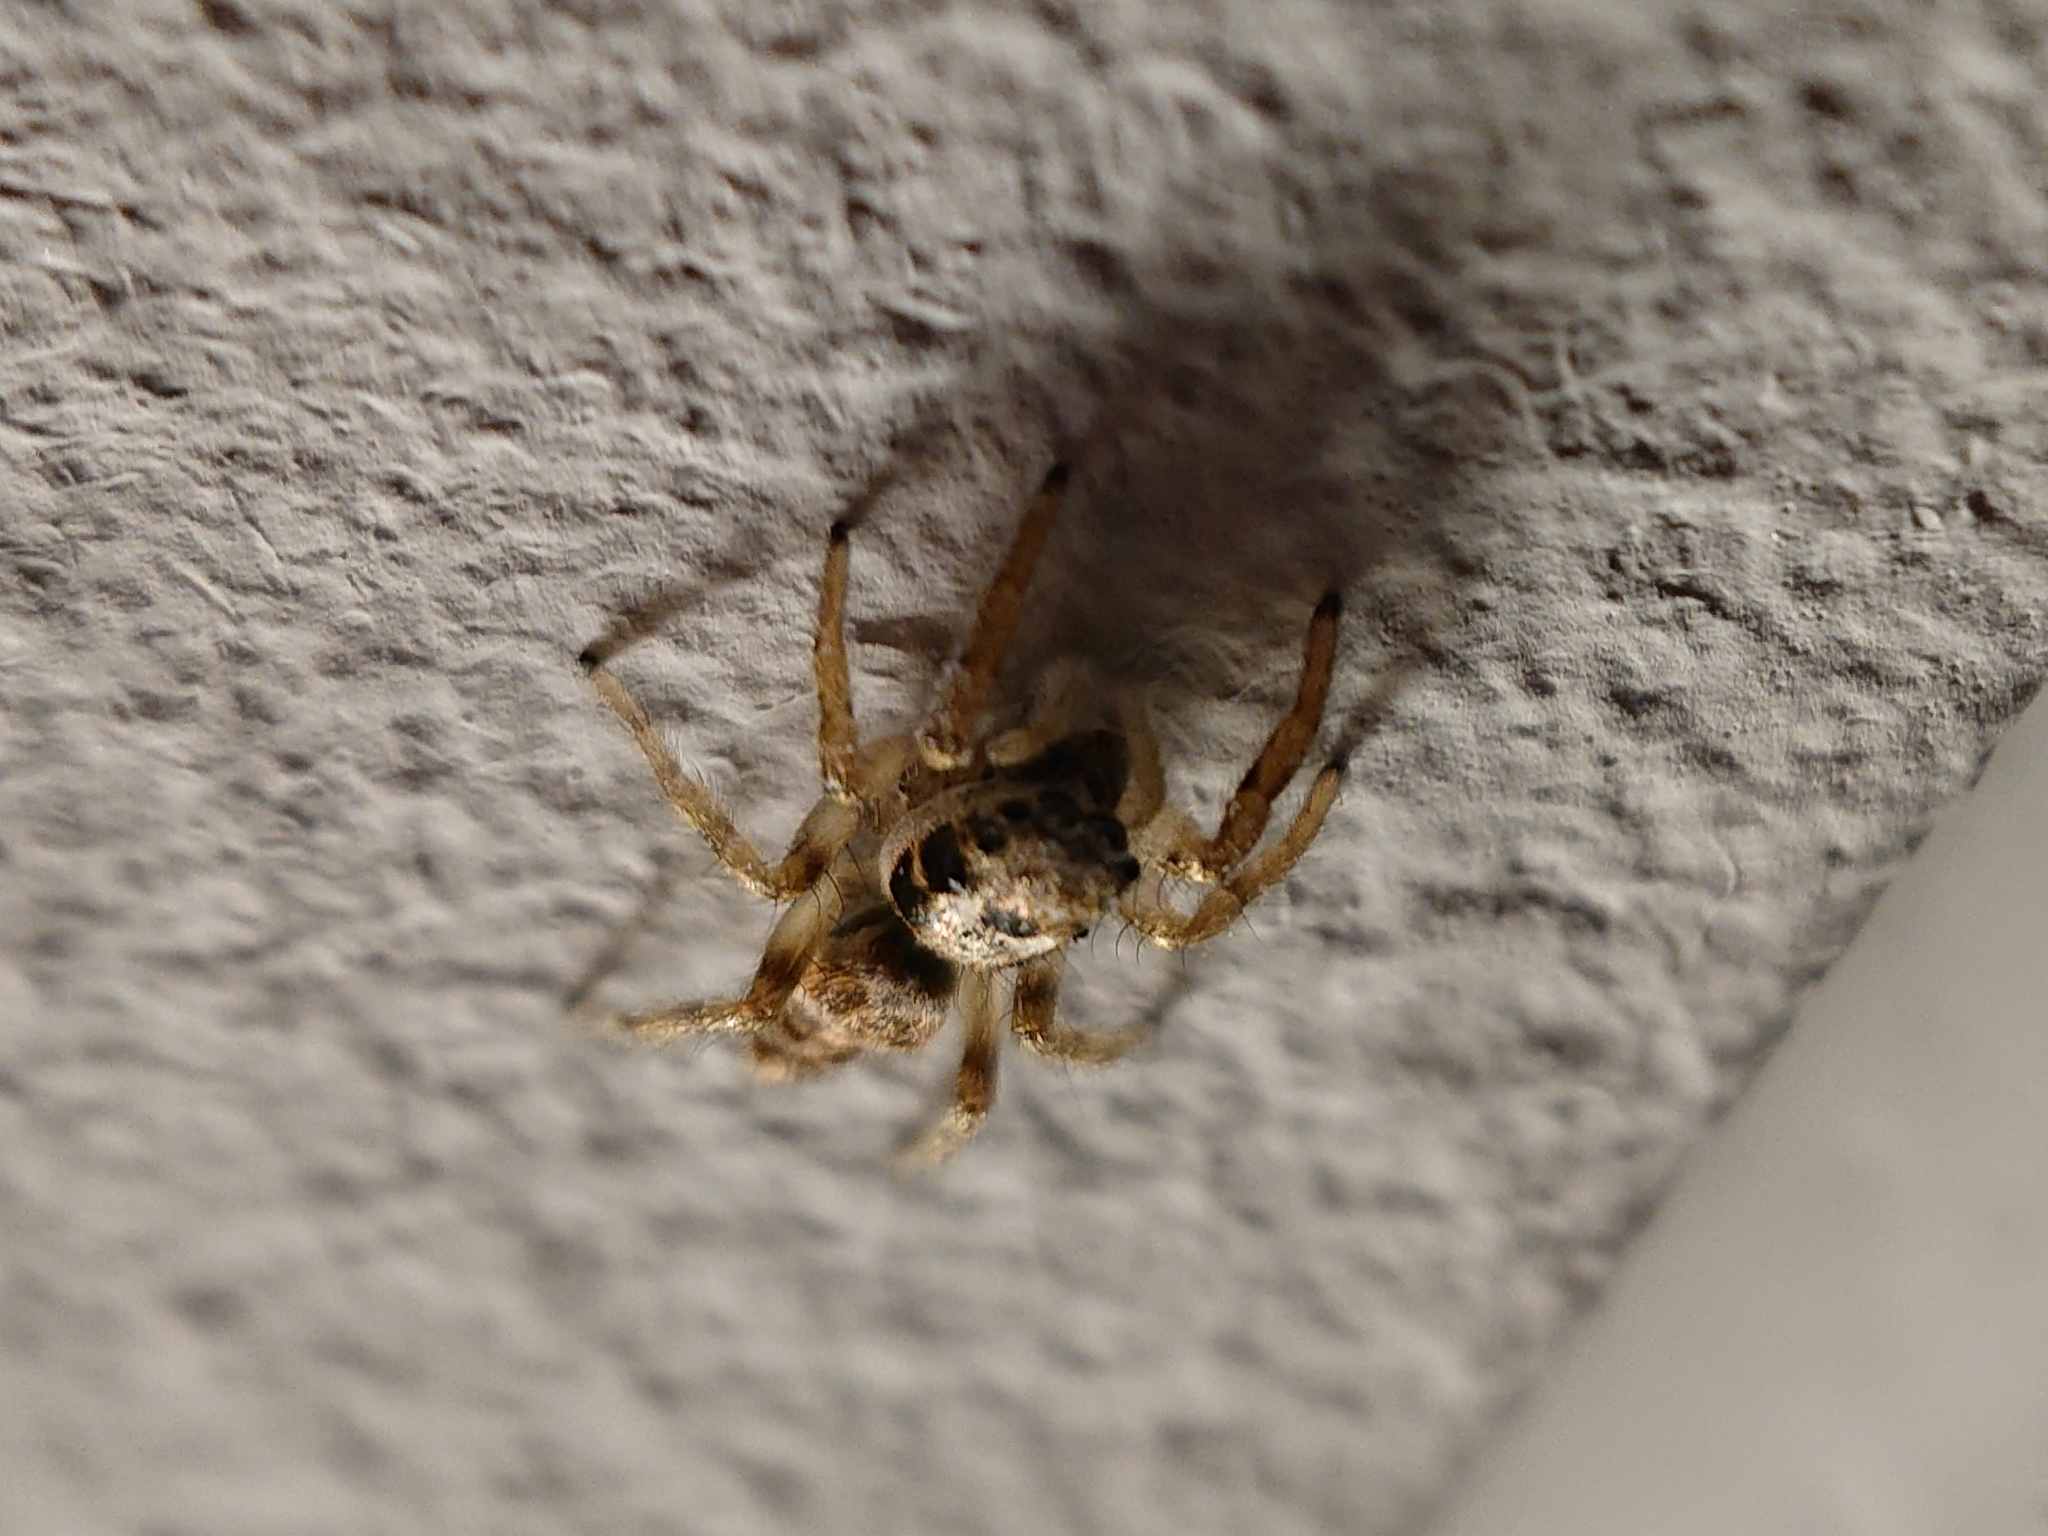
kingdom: Animalia
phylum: Arthropoda
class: Arachnida
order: Araneae
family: Salticidae
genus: Salticus
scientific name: Salticus scenicus
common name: Zebra jumper
